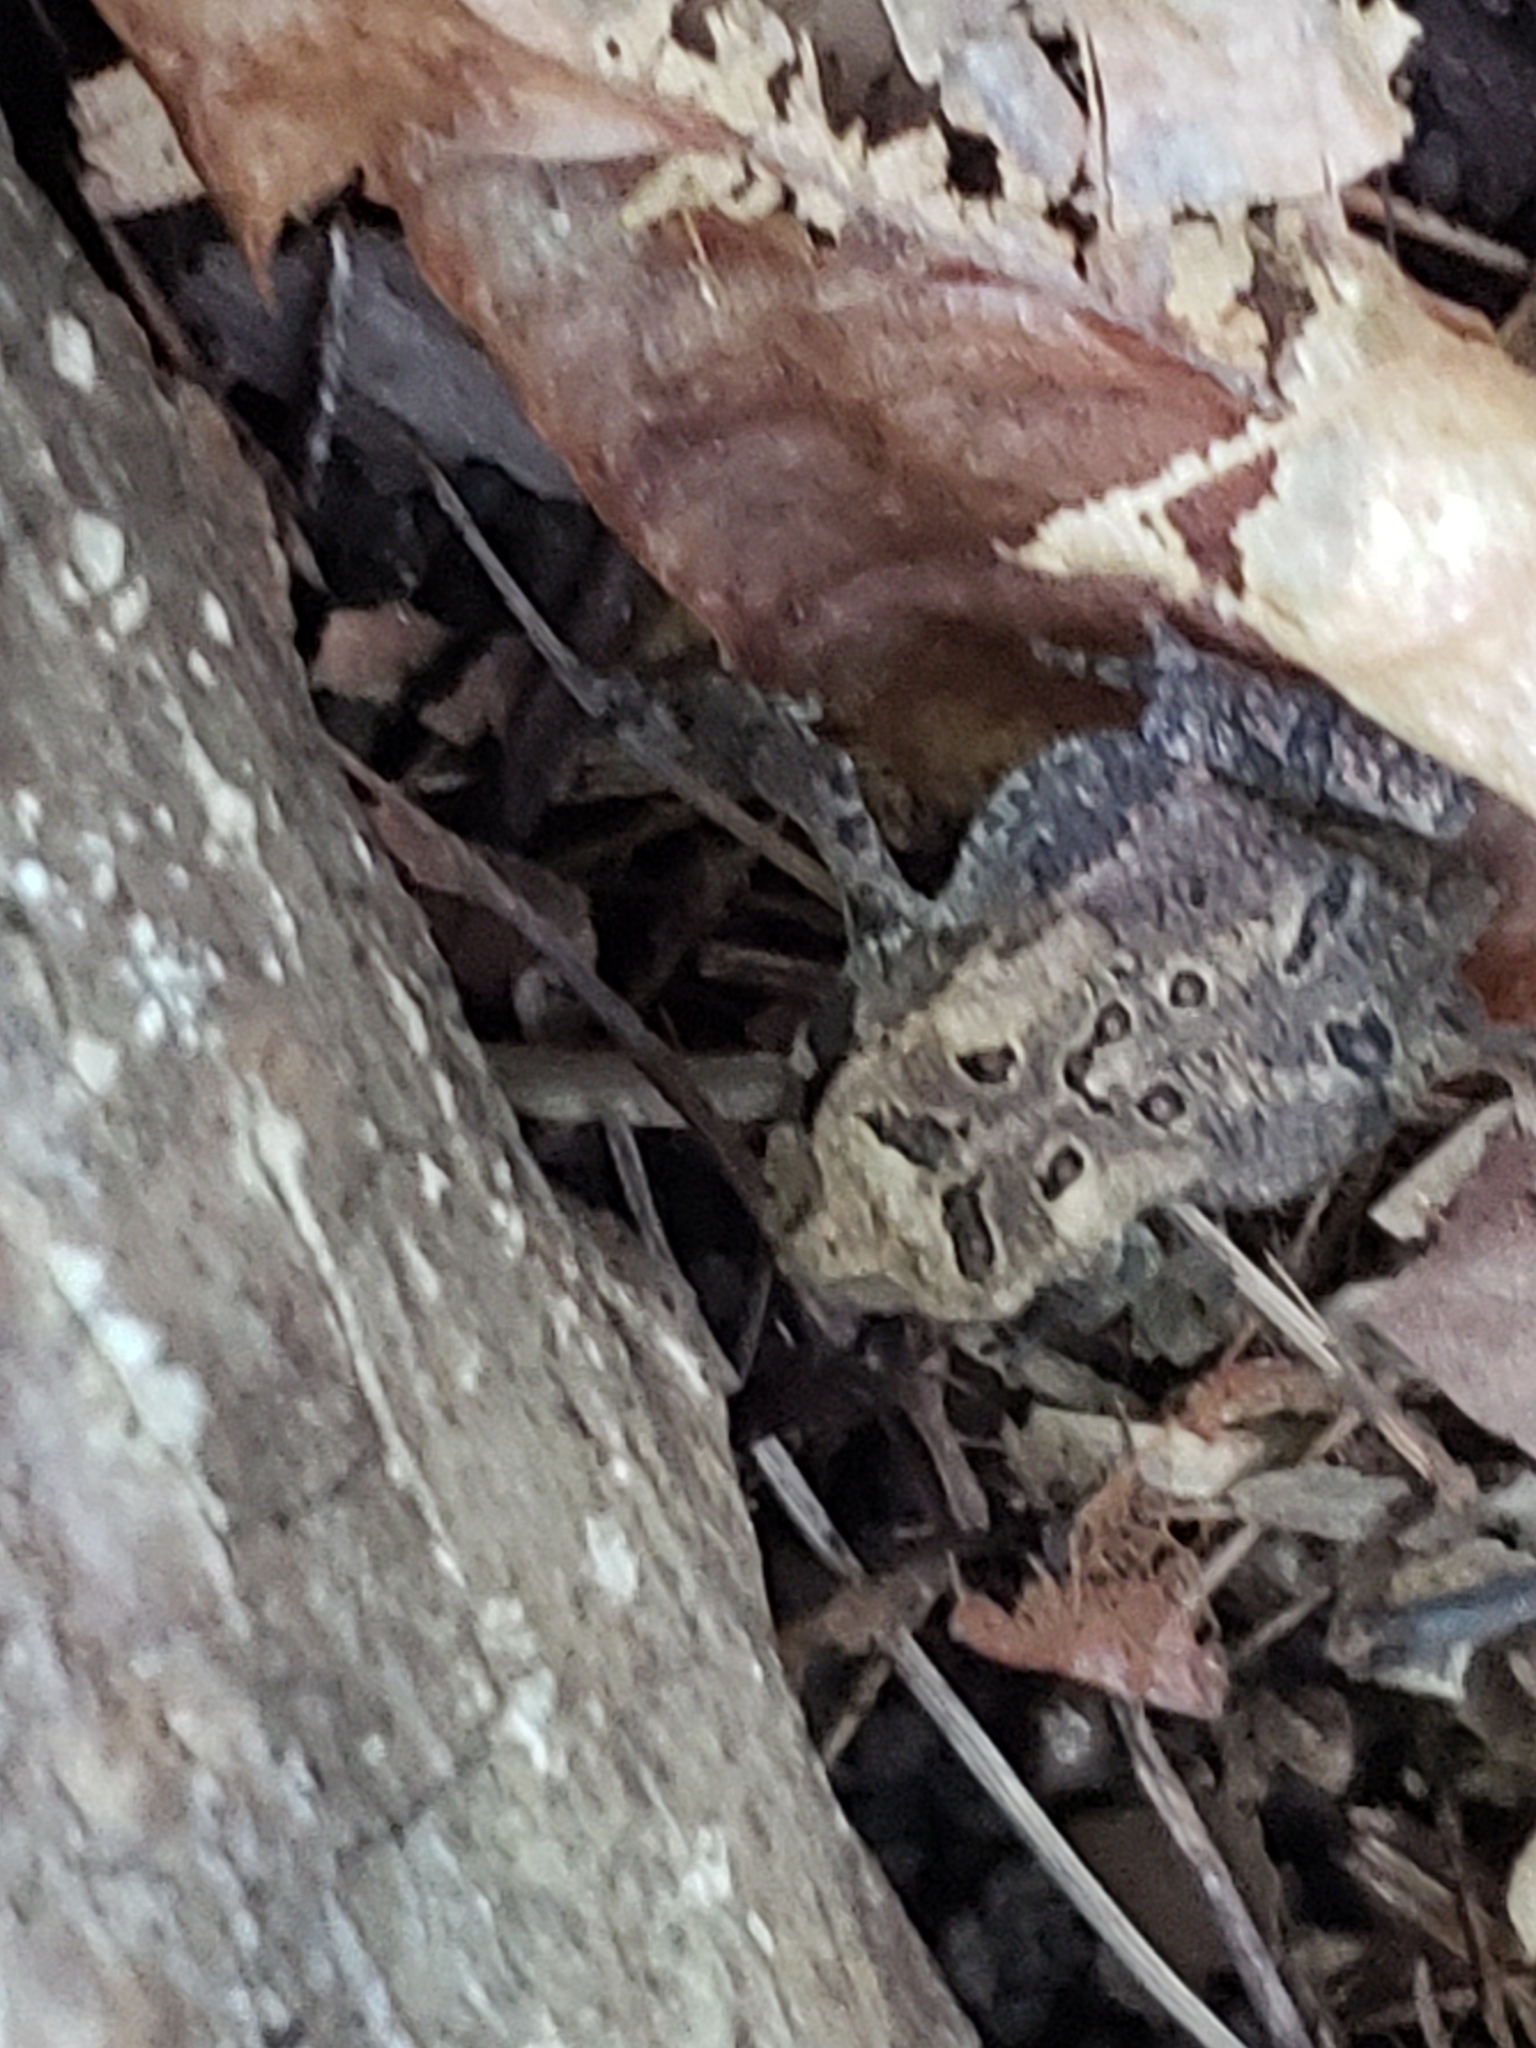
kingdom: Animalia
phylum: Chordata
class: Amphibia
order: Anura
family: Bufonidae
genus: Anaxyrus
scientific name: Anaxyrus americanus
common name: American toad
